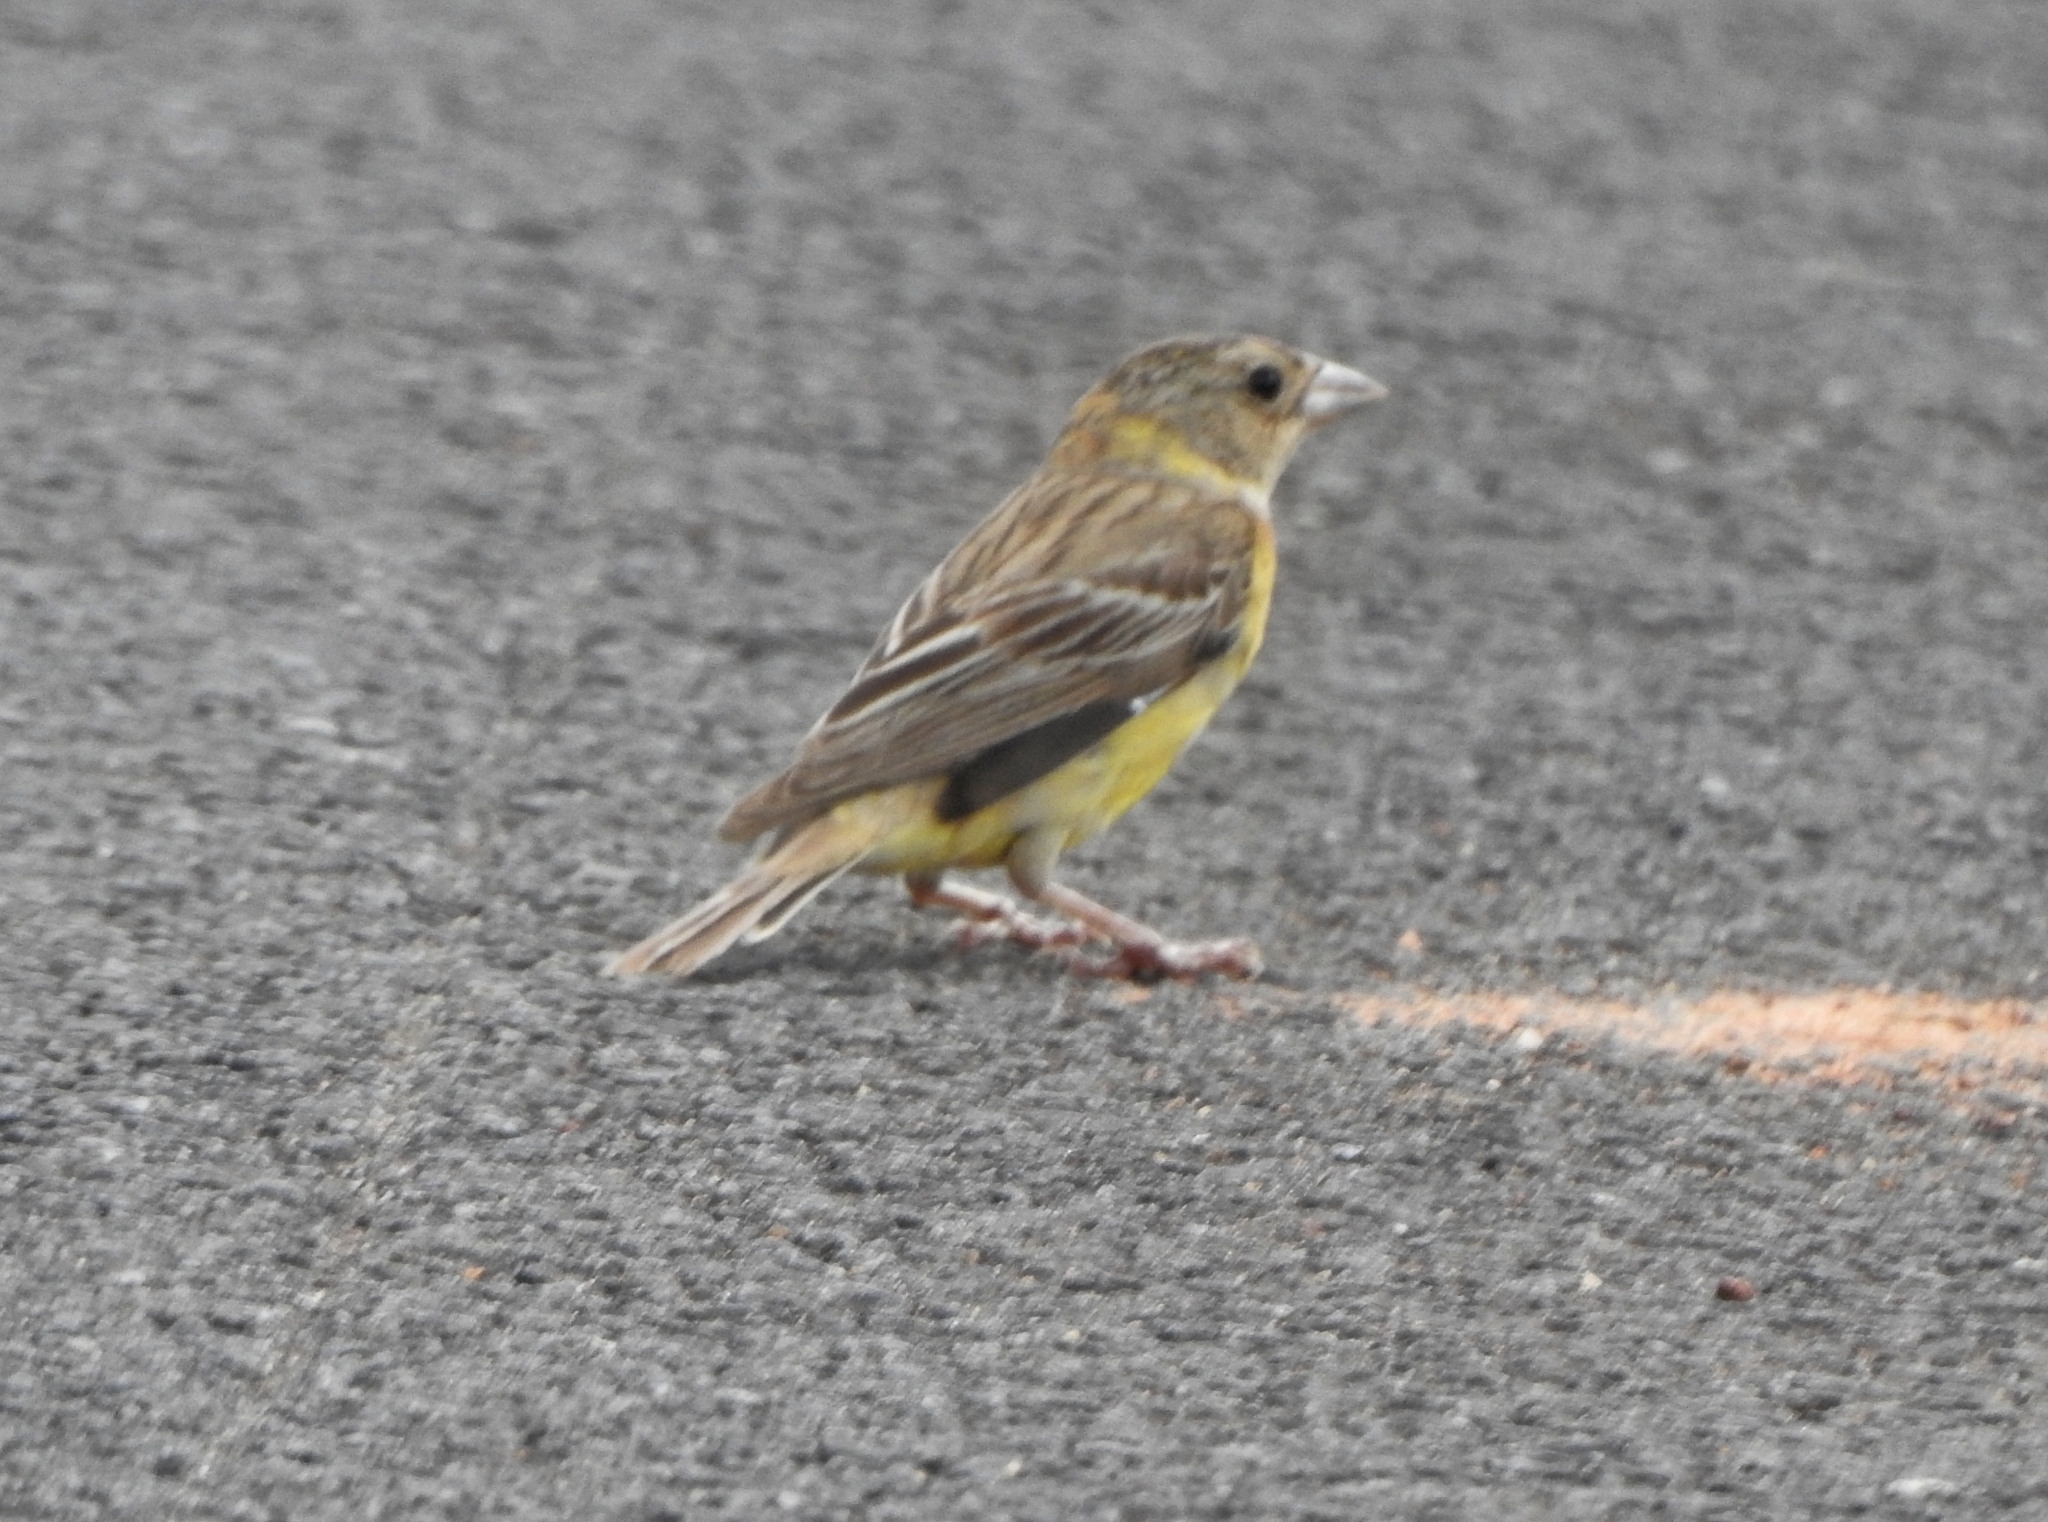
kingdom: Animalia
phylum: Chordata
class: Aves
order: Passeriformes
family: Emberizidae
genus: Emberiza
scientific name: Emberiza melanocephala
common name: Black-headed bunting
